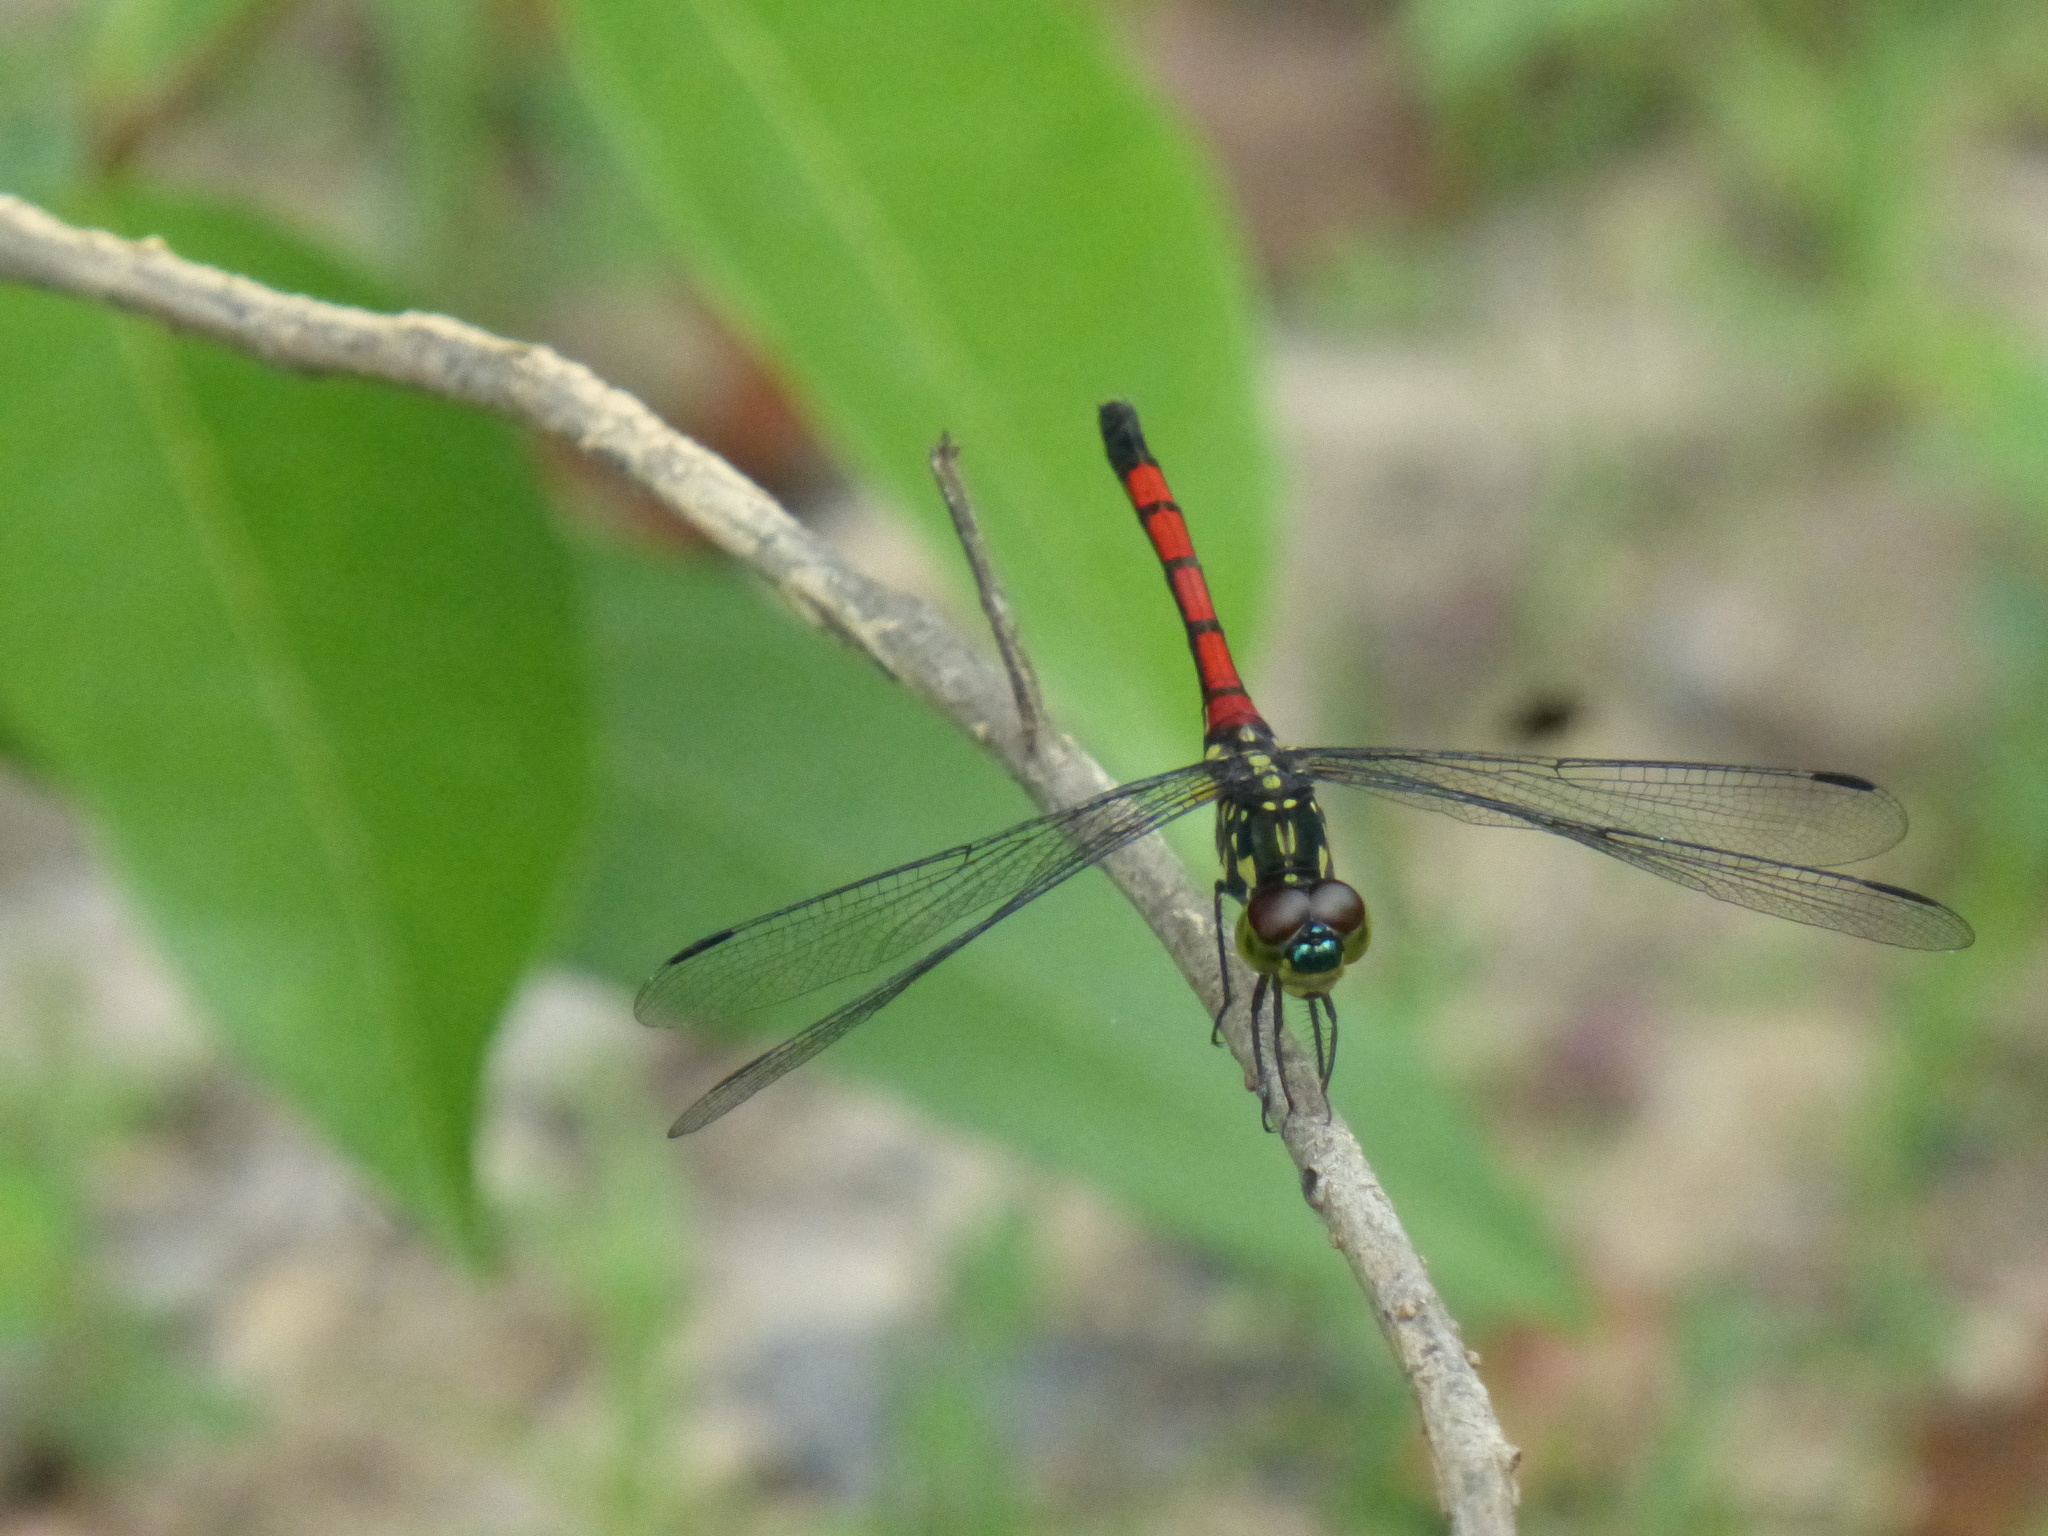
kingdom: Animalia
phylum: Arthropoda
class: Insecta
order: Odonata
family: Libellulidae
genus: Agrionoptera
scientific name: Agrionoptera insignis
